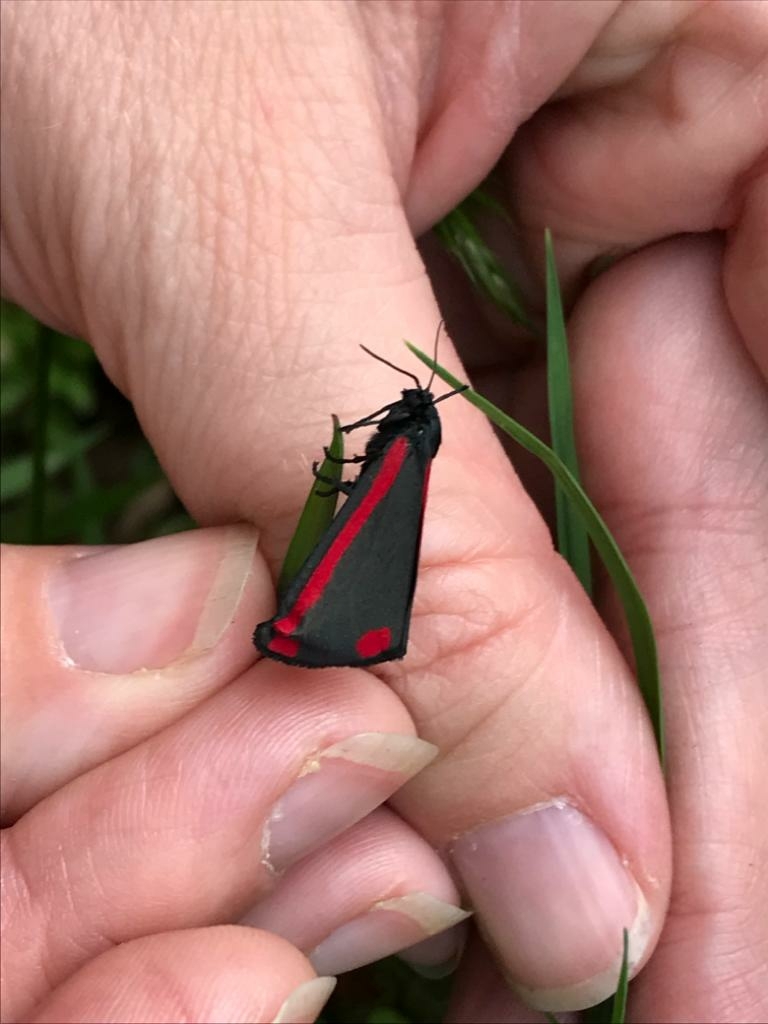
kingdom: Animalia
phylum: Arthropoda
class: Insecta
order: Lepidoptera
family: Erebidae
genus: Tyria
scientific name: Tyria jacobaeae
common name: Cinnabar
